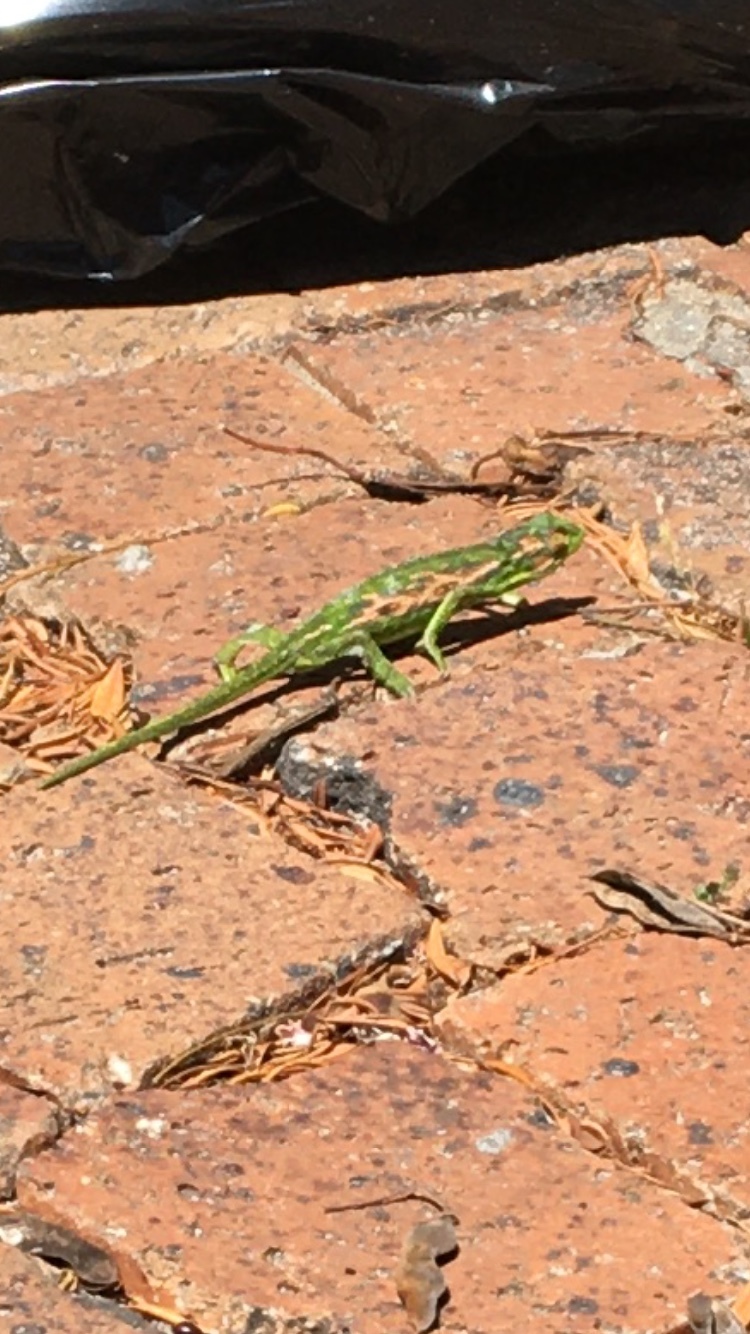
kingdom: Animalia
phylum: Chordata
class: Squamata
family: Chamaeleonidae
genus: Bradypodion
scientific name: Bradypodion pumilum
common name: Cape dwarf chameleon
